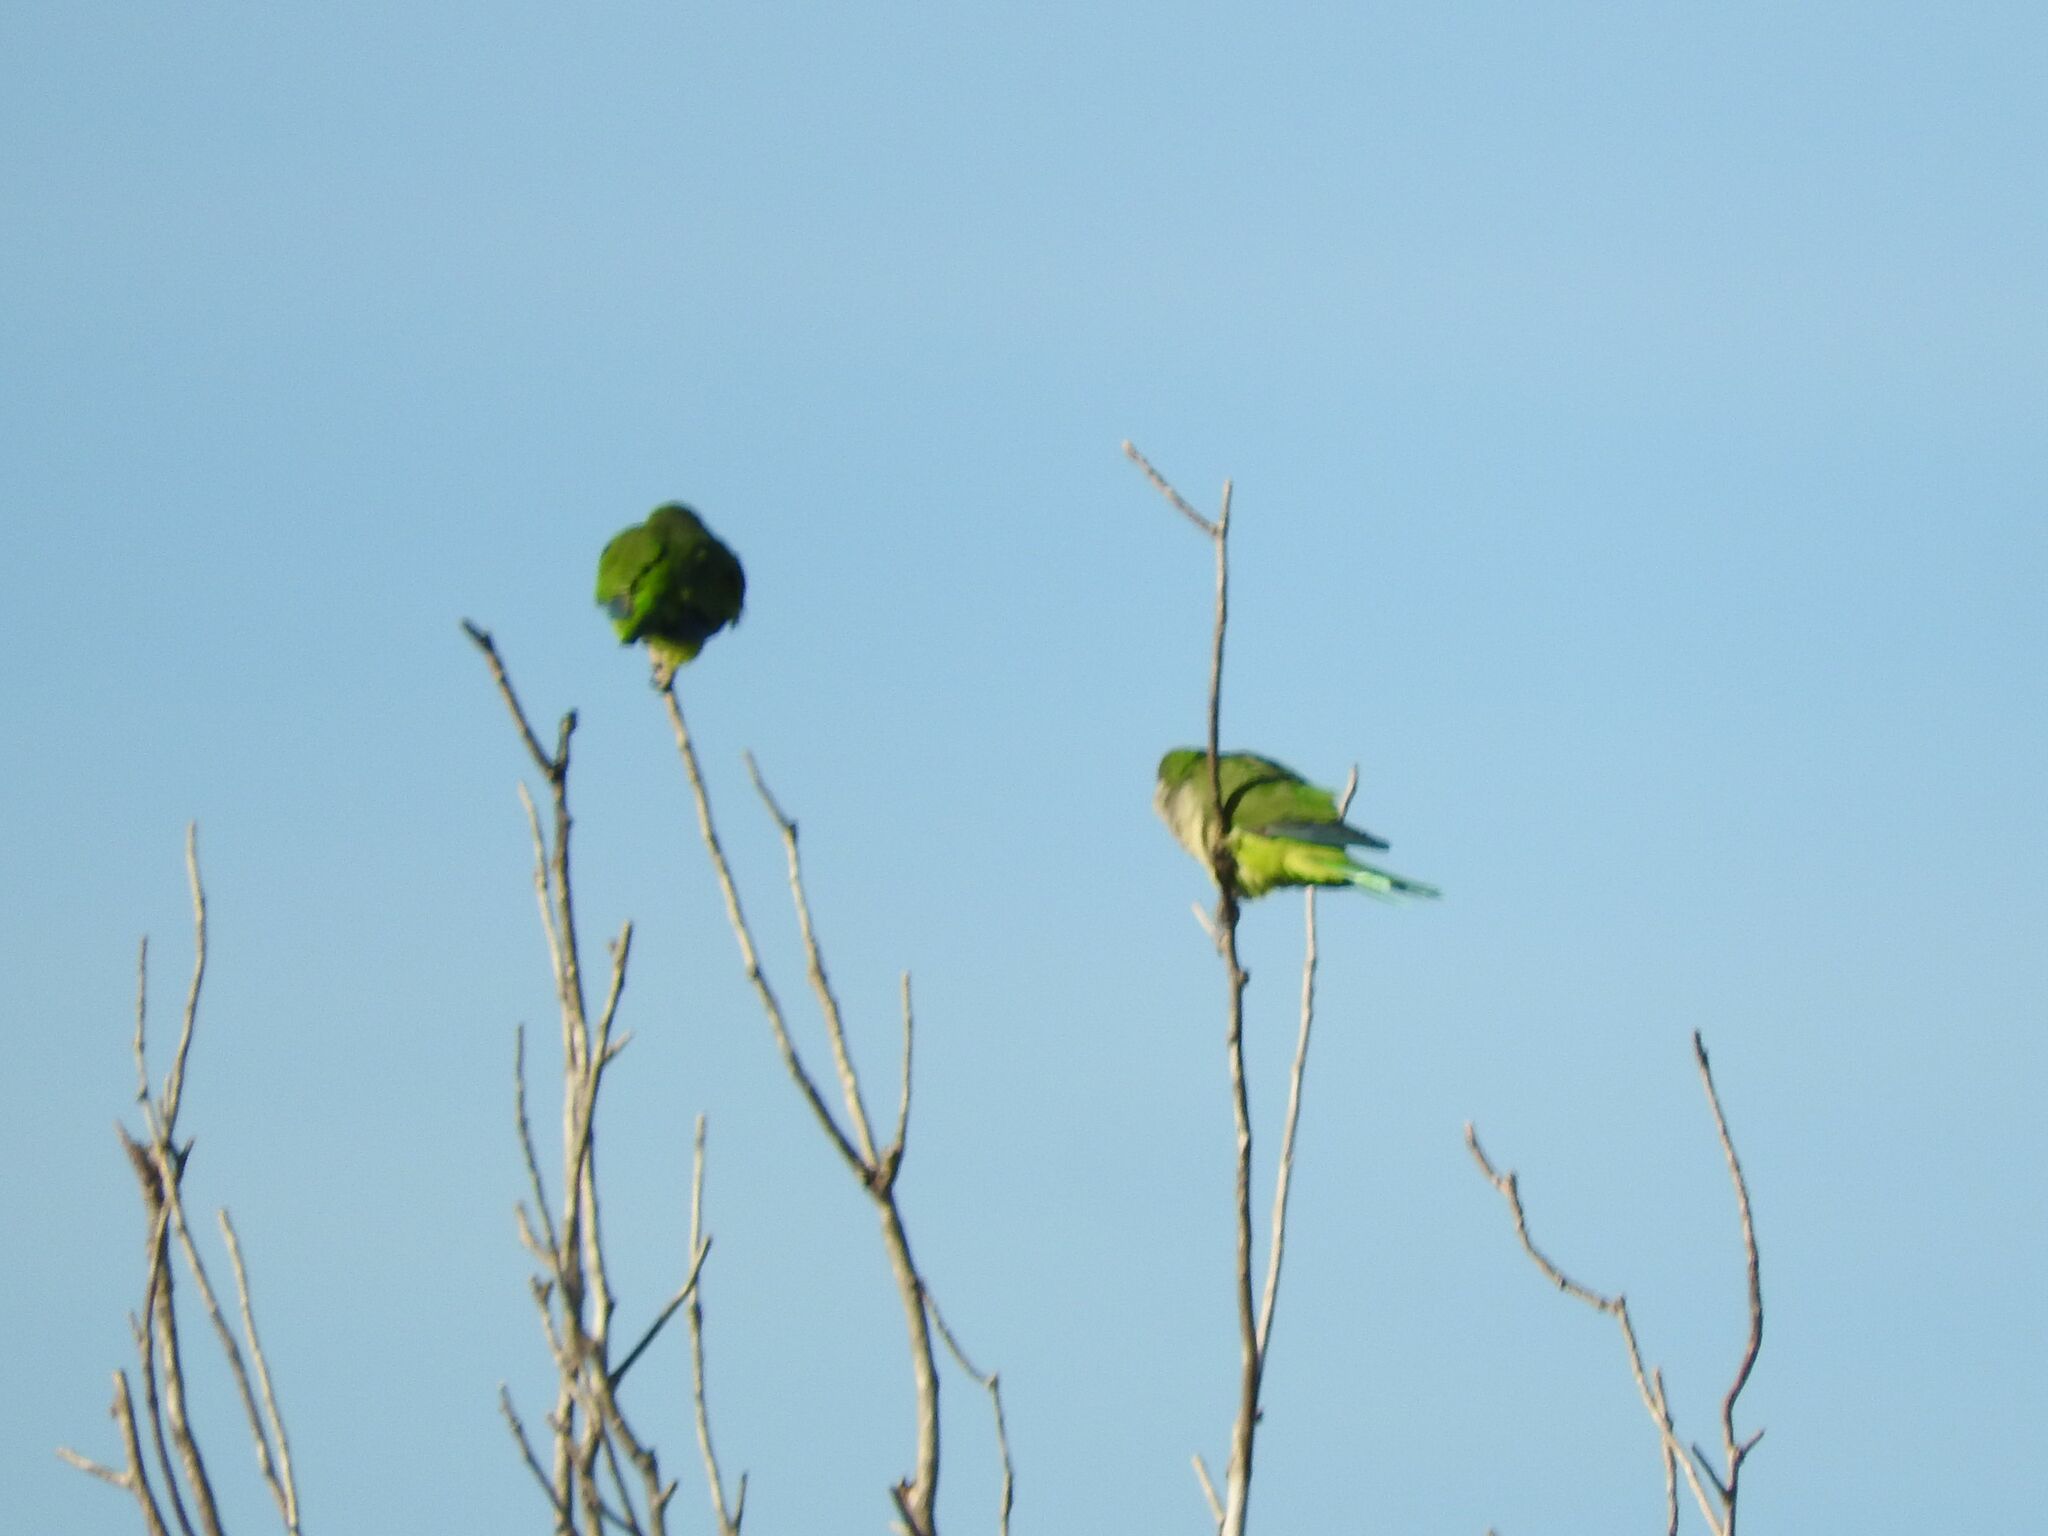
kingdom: Animalia
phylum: Chordata
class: Aves
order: Psittaciformes
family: Psittacidae
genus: Myiopsitta
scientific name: Myiopsitta monachus
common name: Monk parakeet
